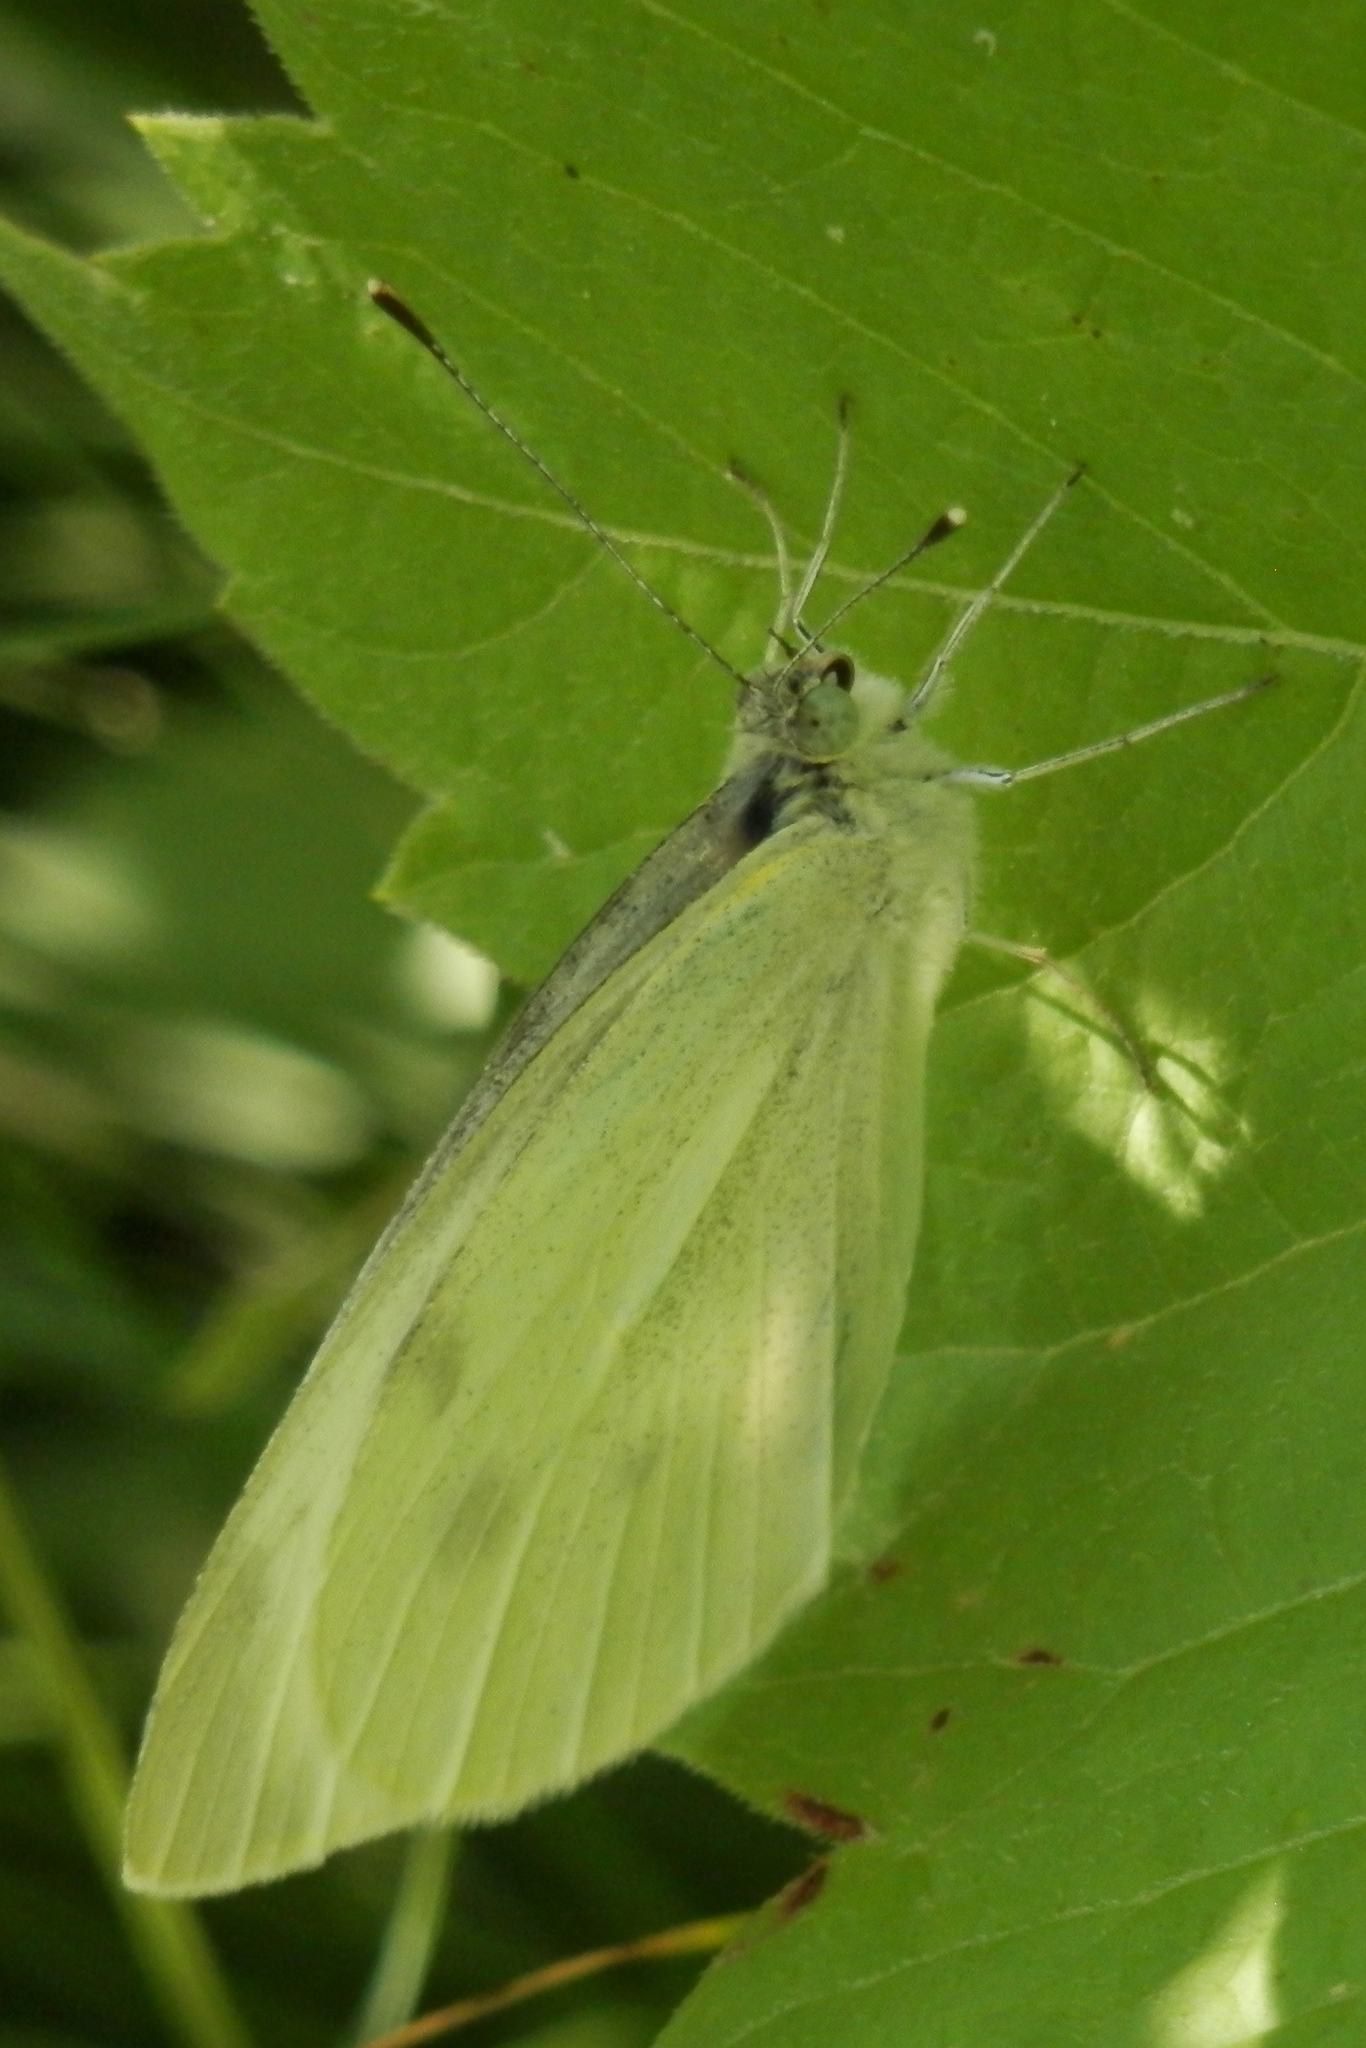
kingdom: Animalia
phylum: Arthropoda
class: Insecta
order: Lepidoptera
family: Pieridae
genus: Pieris
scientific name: Pieris rapae
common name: Small white
